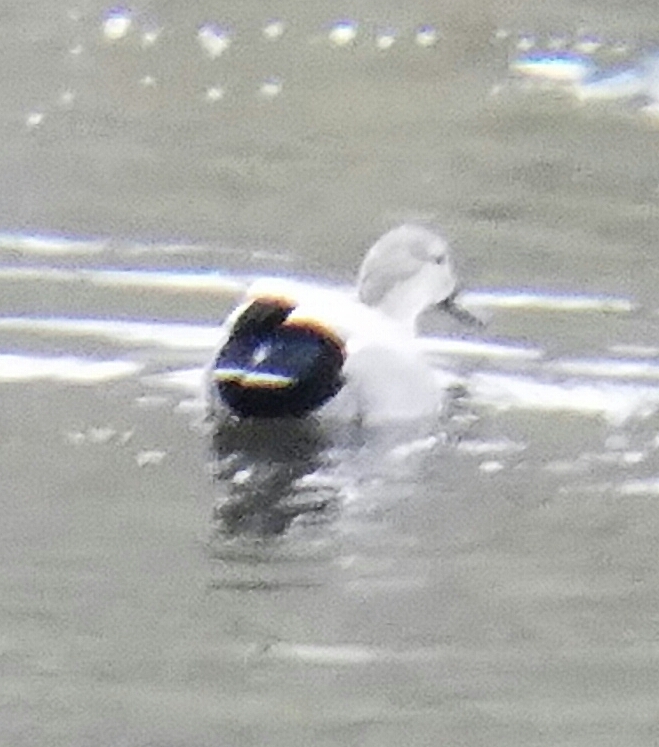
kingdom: Animalia
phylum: Chordata
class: Aves
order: Anseriformes
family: Anatidae
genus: Mareca
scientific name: Mareca strepera
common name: Gadwall
